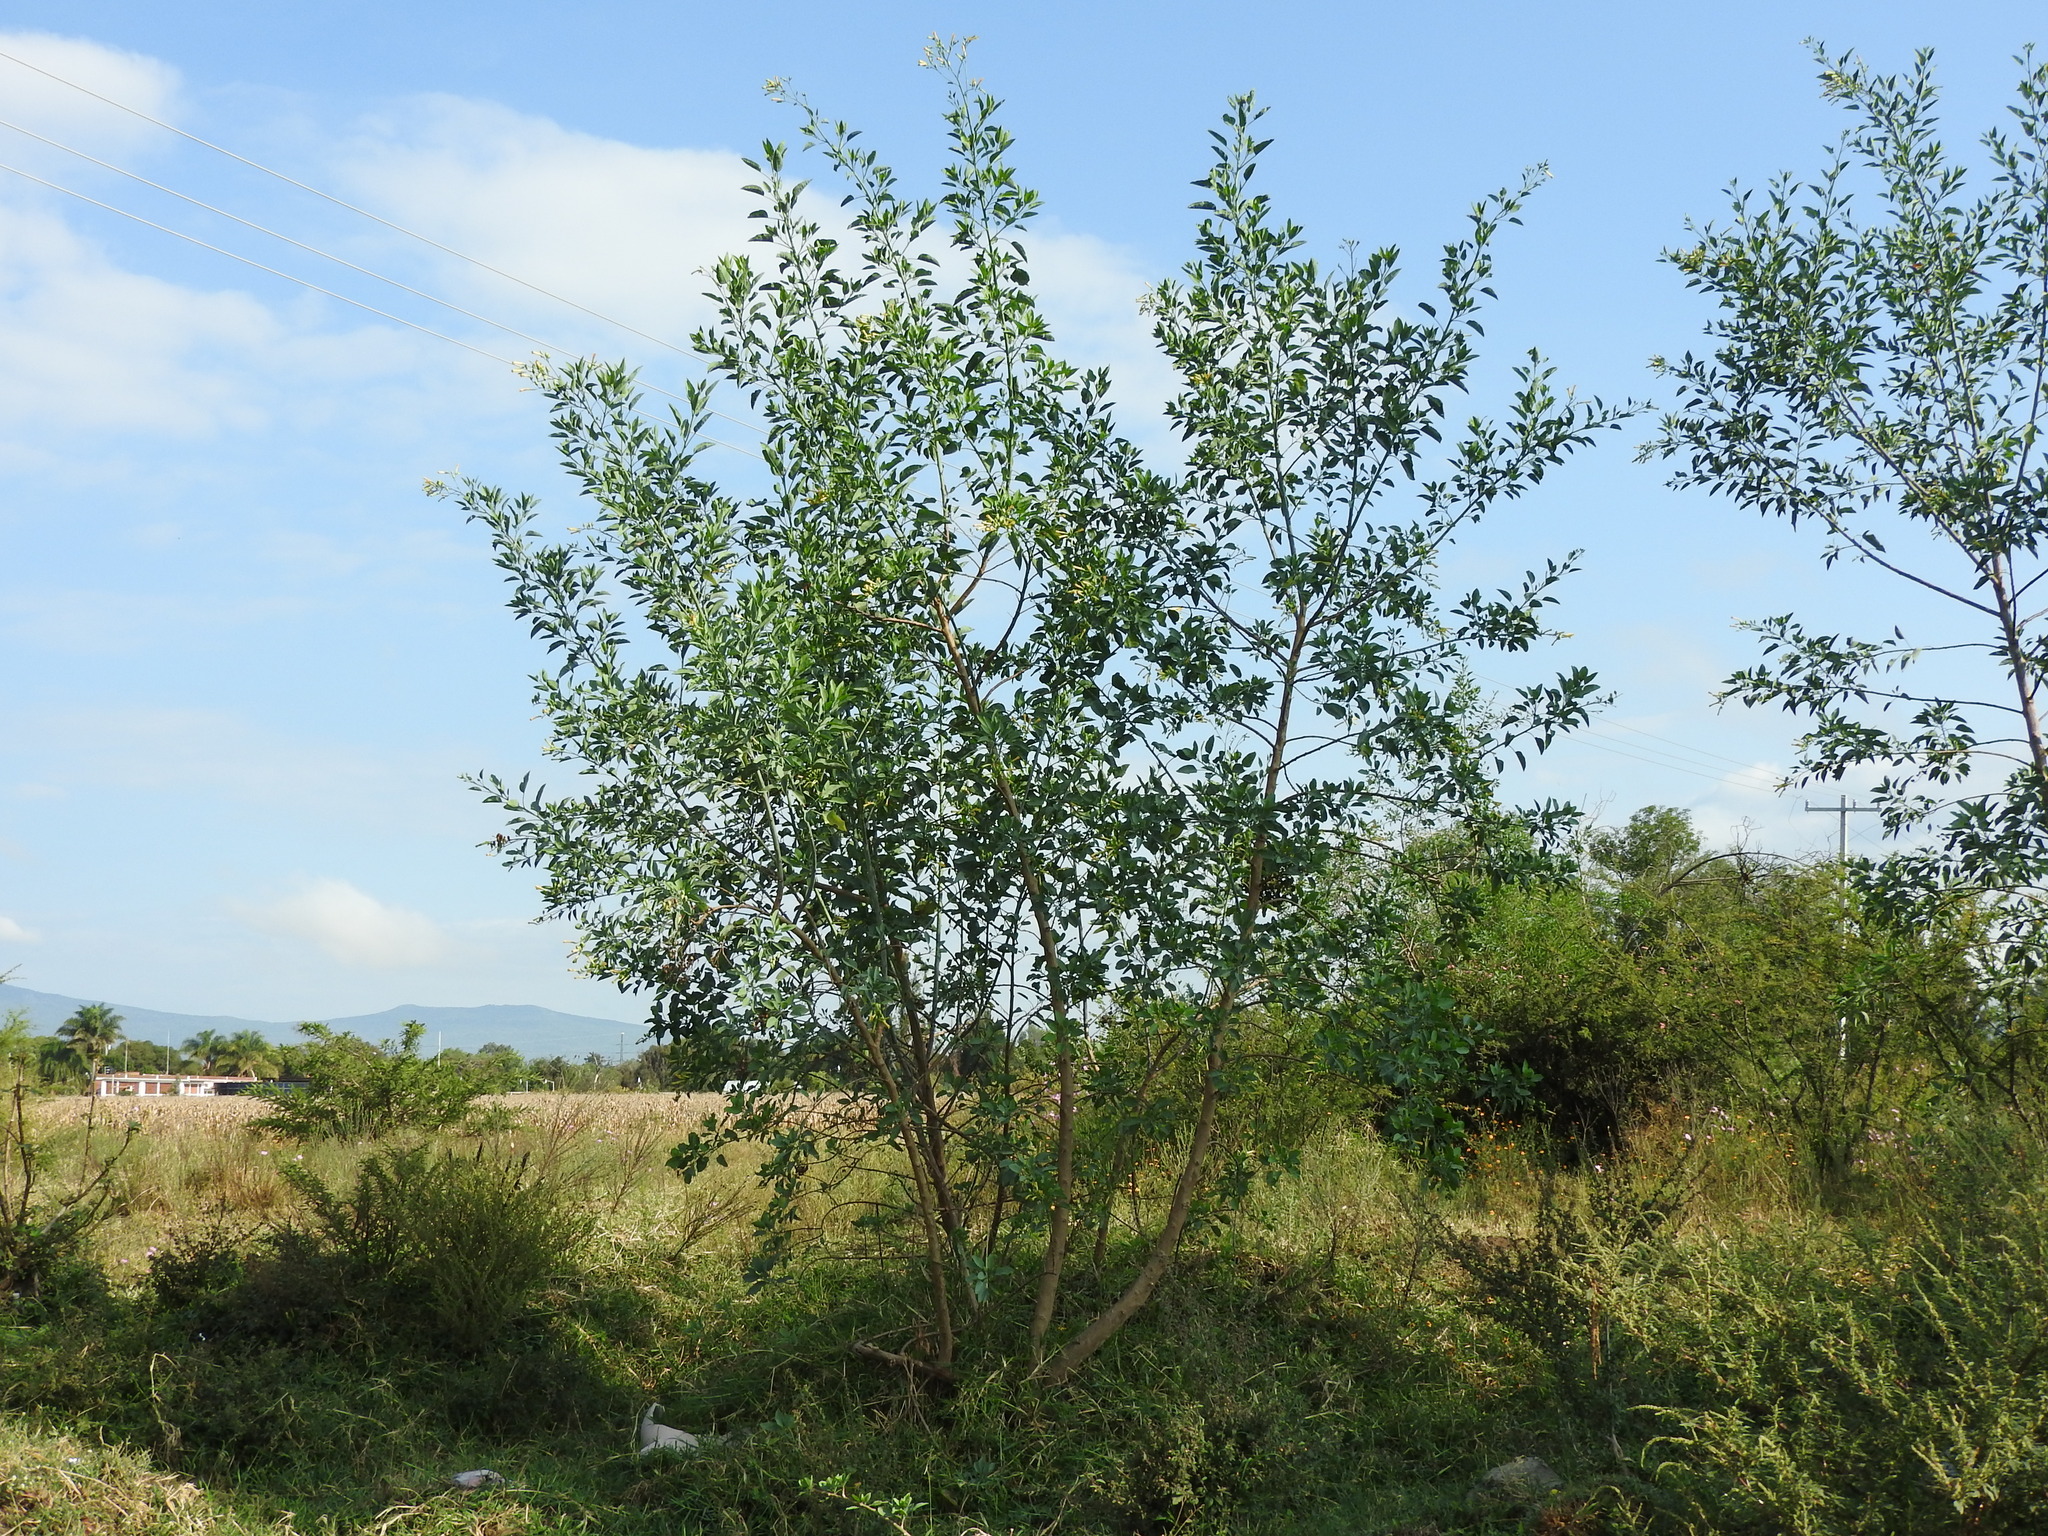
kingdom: Plantae
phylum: Tracheophyta
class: Magnoliopsida
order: Solanales
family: Solanaceae
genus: Nicotiana
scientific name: Nicotiana glauca
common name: Tree tobacco
